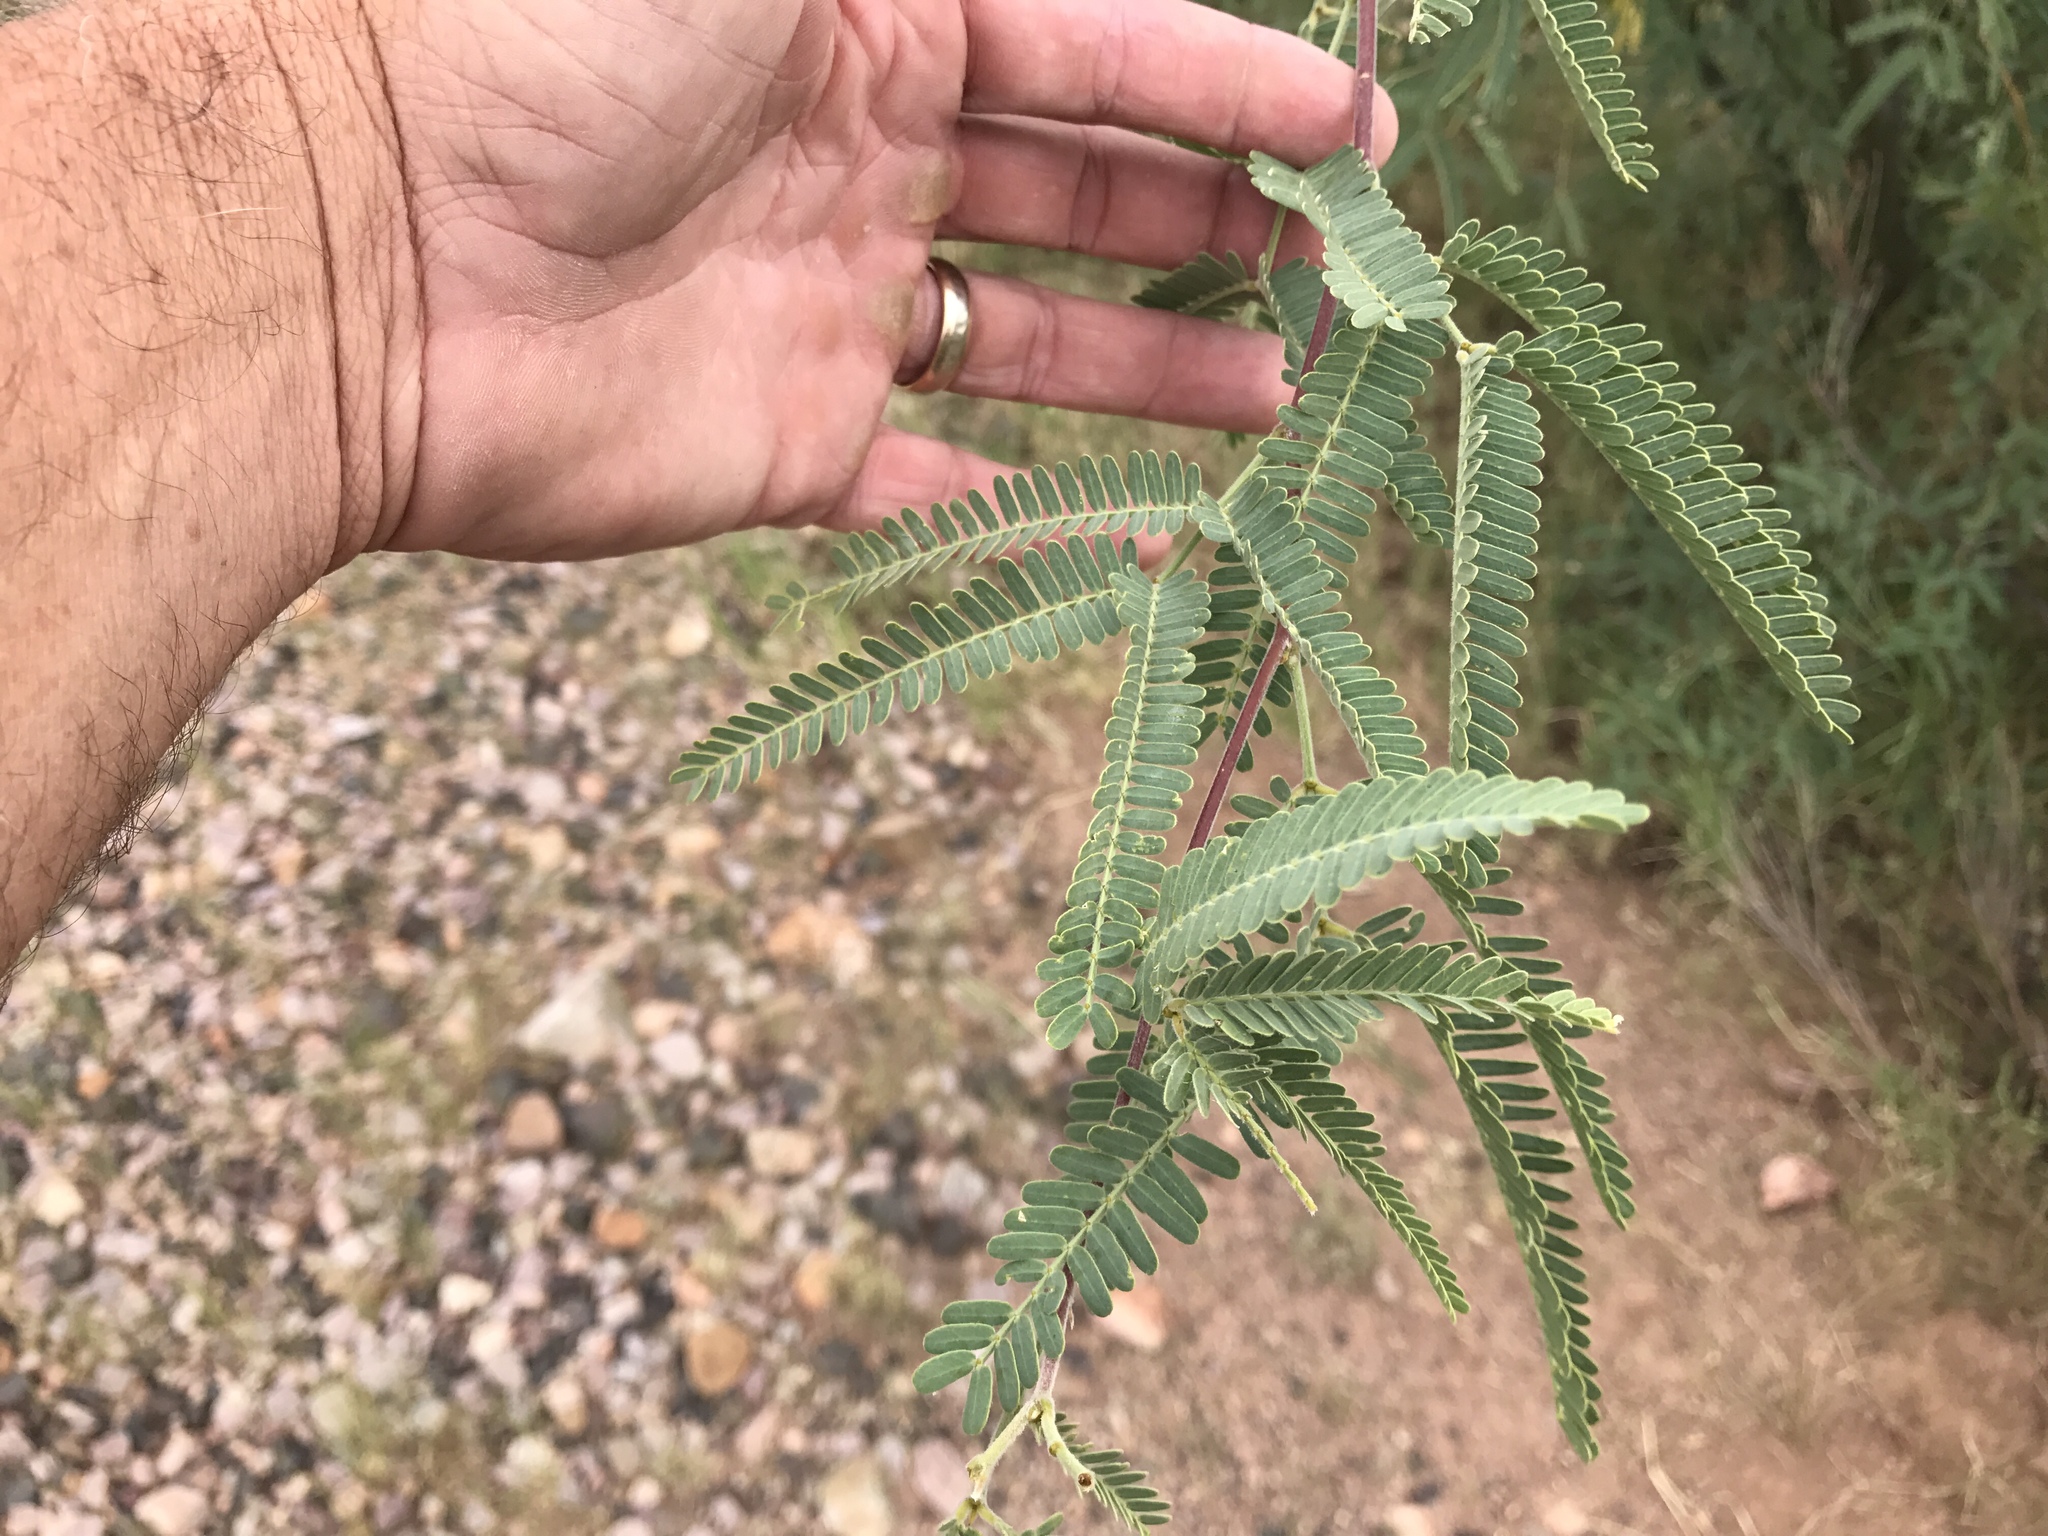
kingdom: Plantae
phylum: Tracheophyta
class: Magnoliopsida
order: Fabales
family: Fabaceae
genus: Prosopis
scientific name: Prosopis velutina
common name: Velvet mesquite
